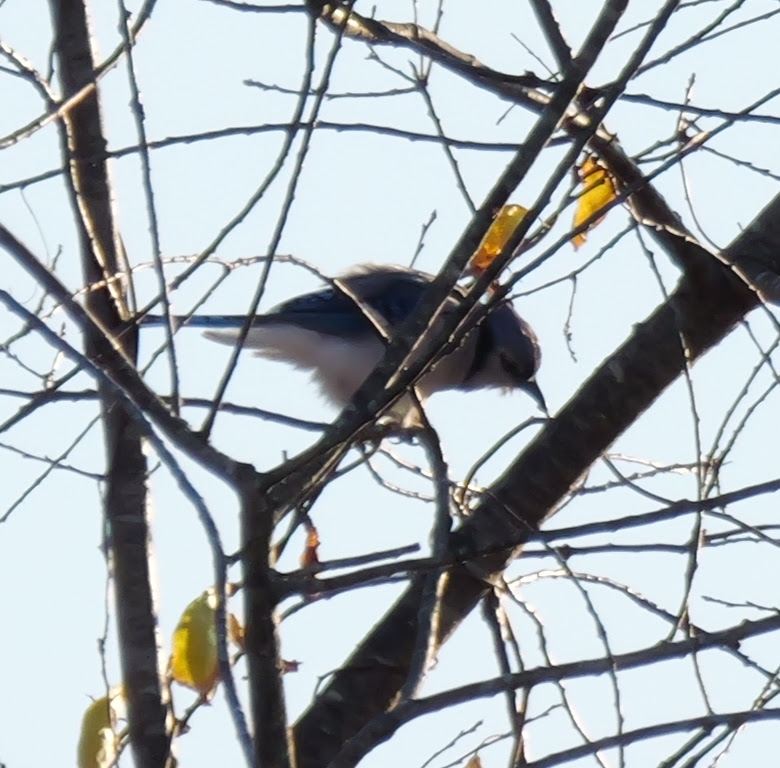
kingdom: Animalia
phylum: Chordata
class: Aves
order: Passeriformes
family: Corvidae
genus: Cyanocitta
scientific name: Cyanocitta cristata
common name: Blue jay
